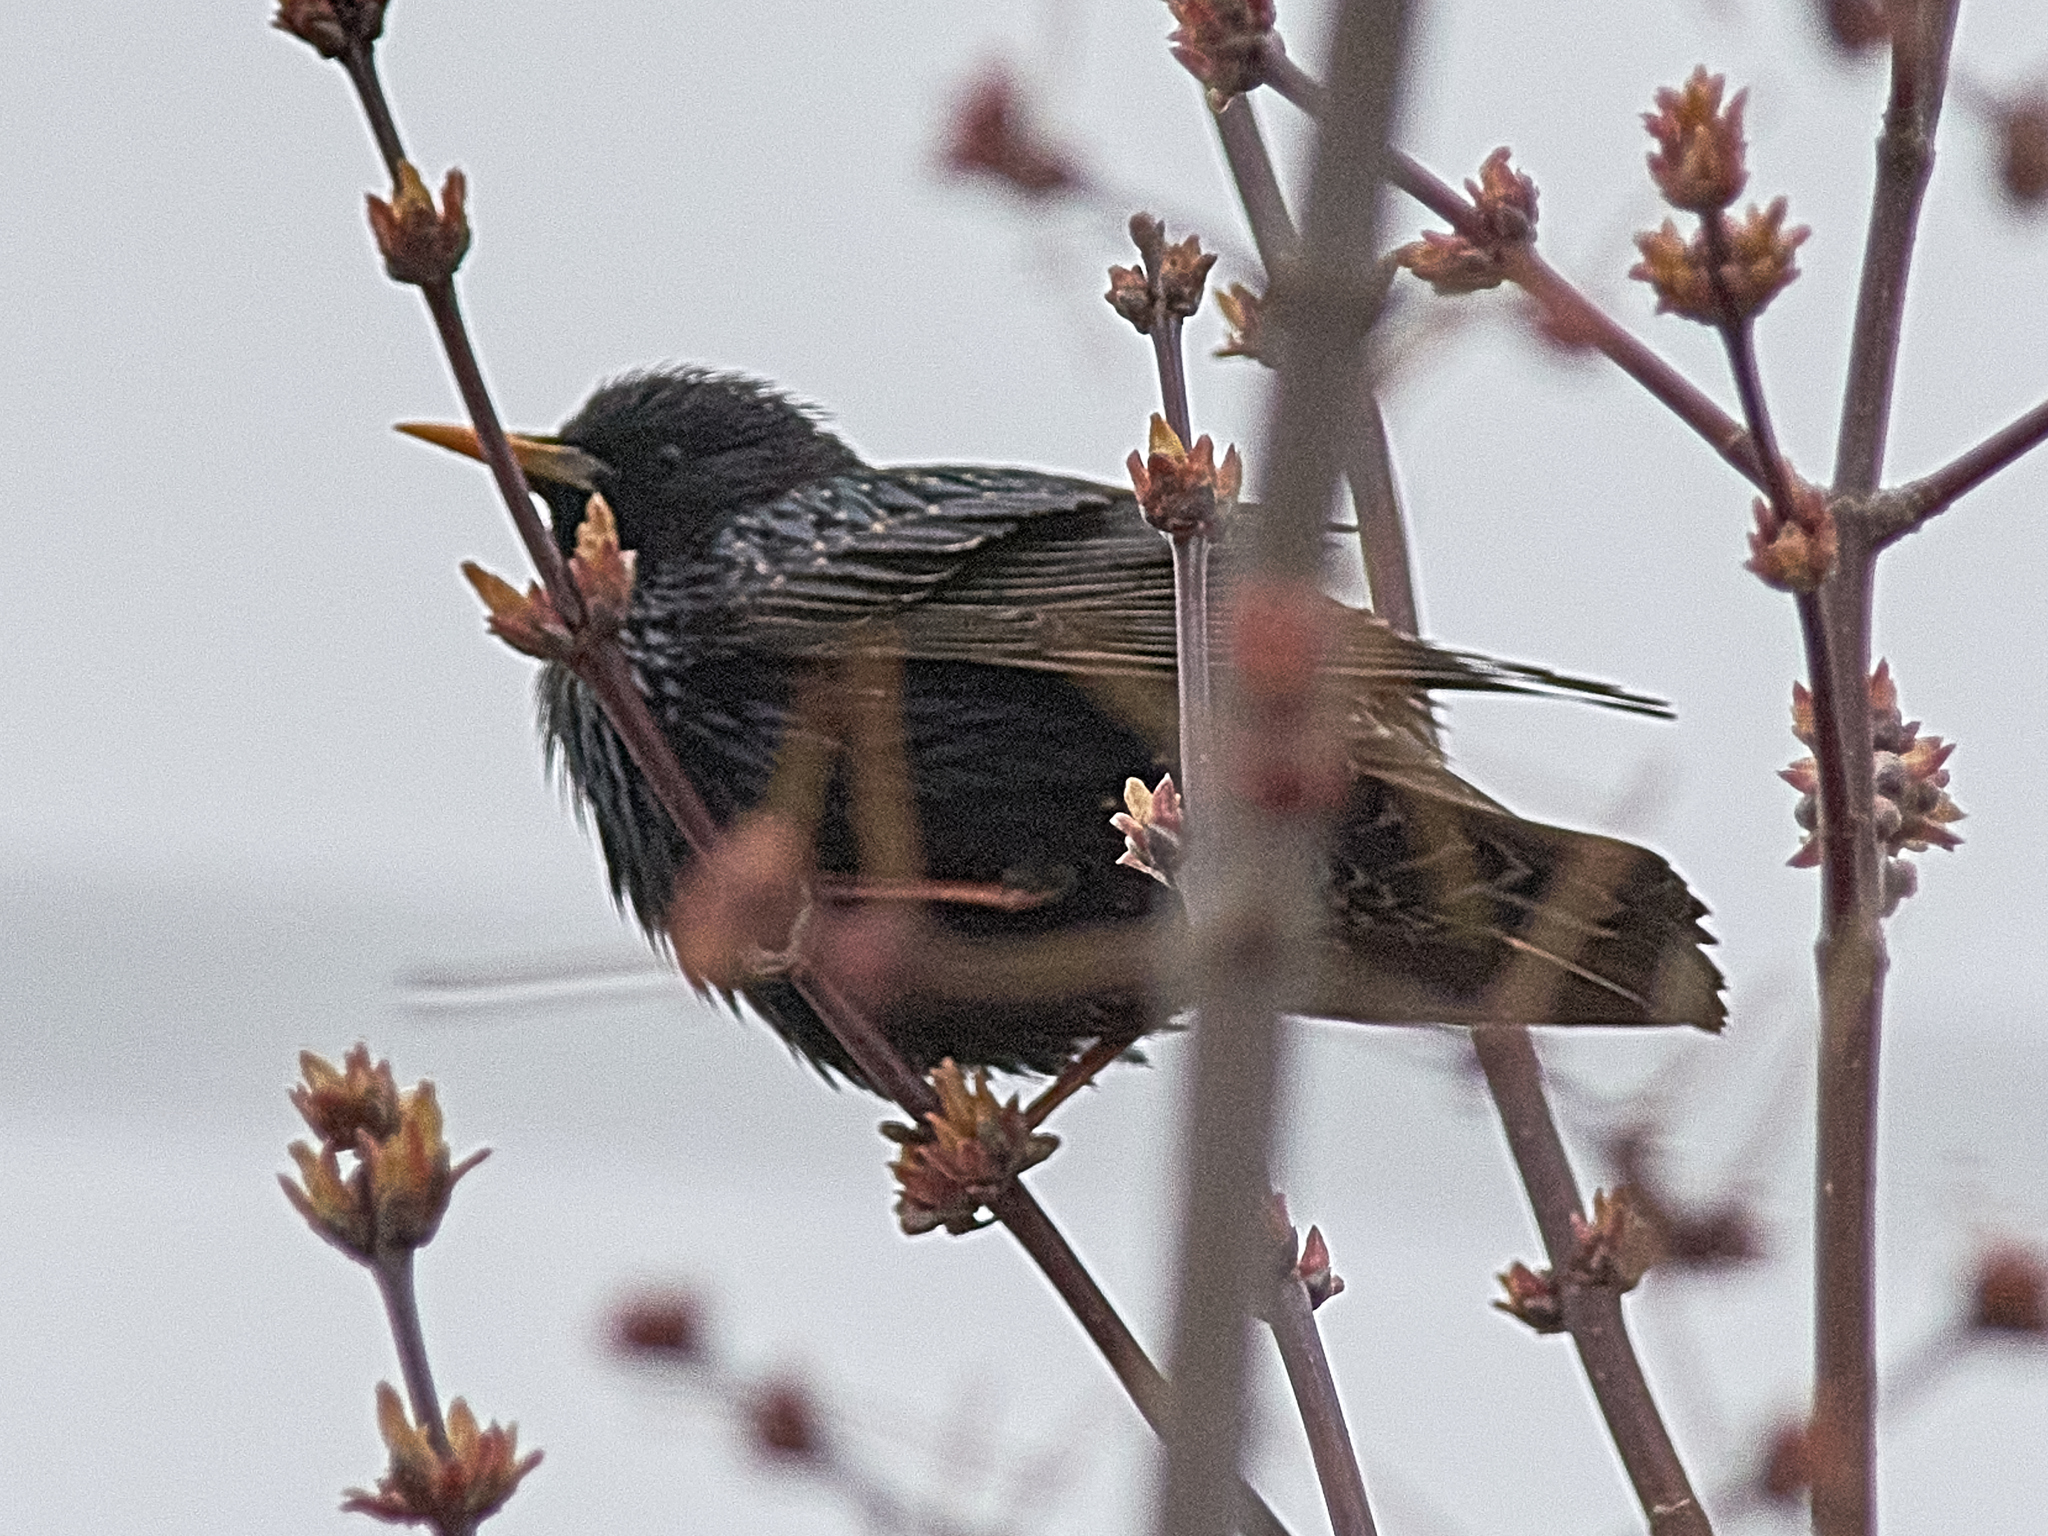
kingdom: Animalia
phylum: Chordata
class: Aves
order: Passeriformes
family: Sturnidae
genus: Sturnus
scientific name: Sturnus vulgaris
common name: Common starling
